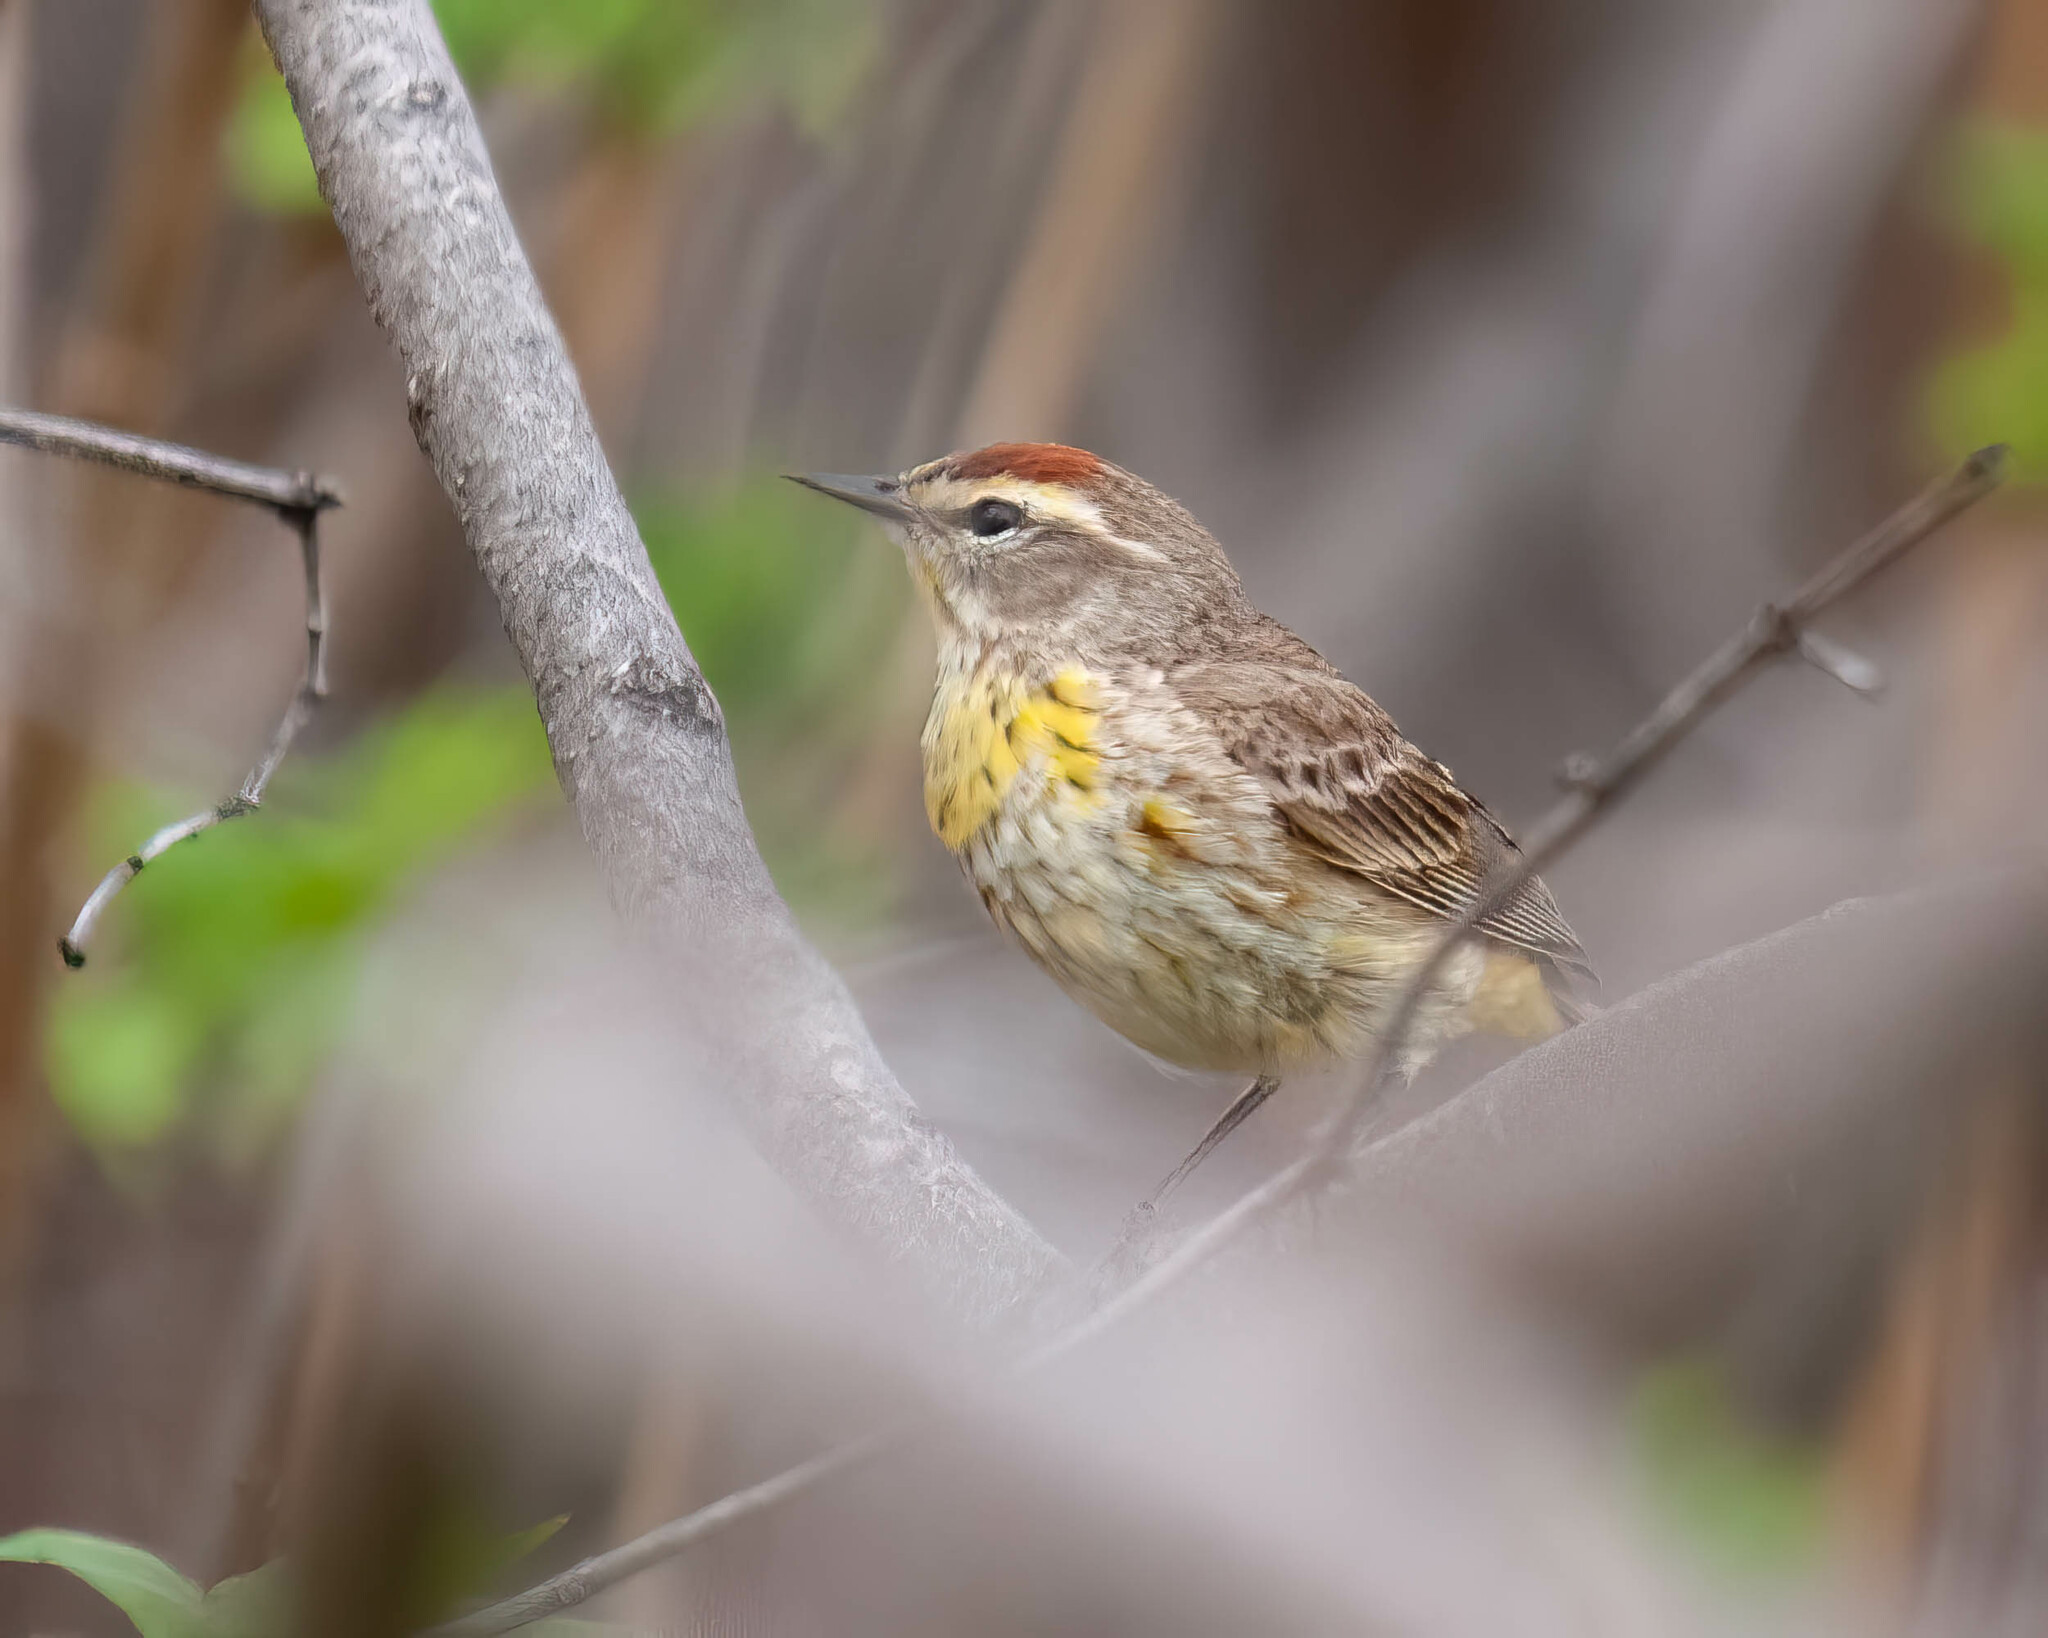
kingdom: Animalia
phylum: Chordata
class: Aves
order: Passeriformes
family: Parulidae
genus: Setophaga
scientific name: Setophaga palmarum
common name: Palm warbler
